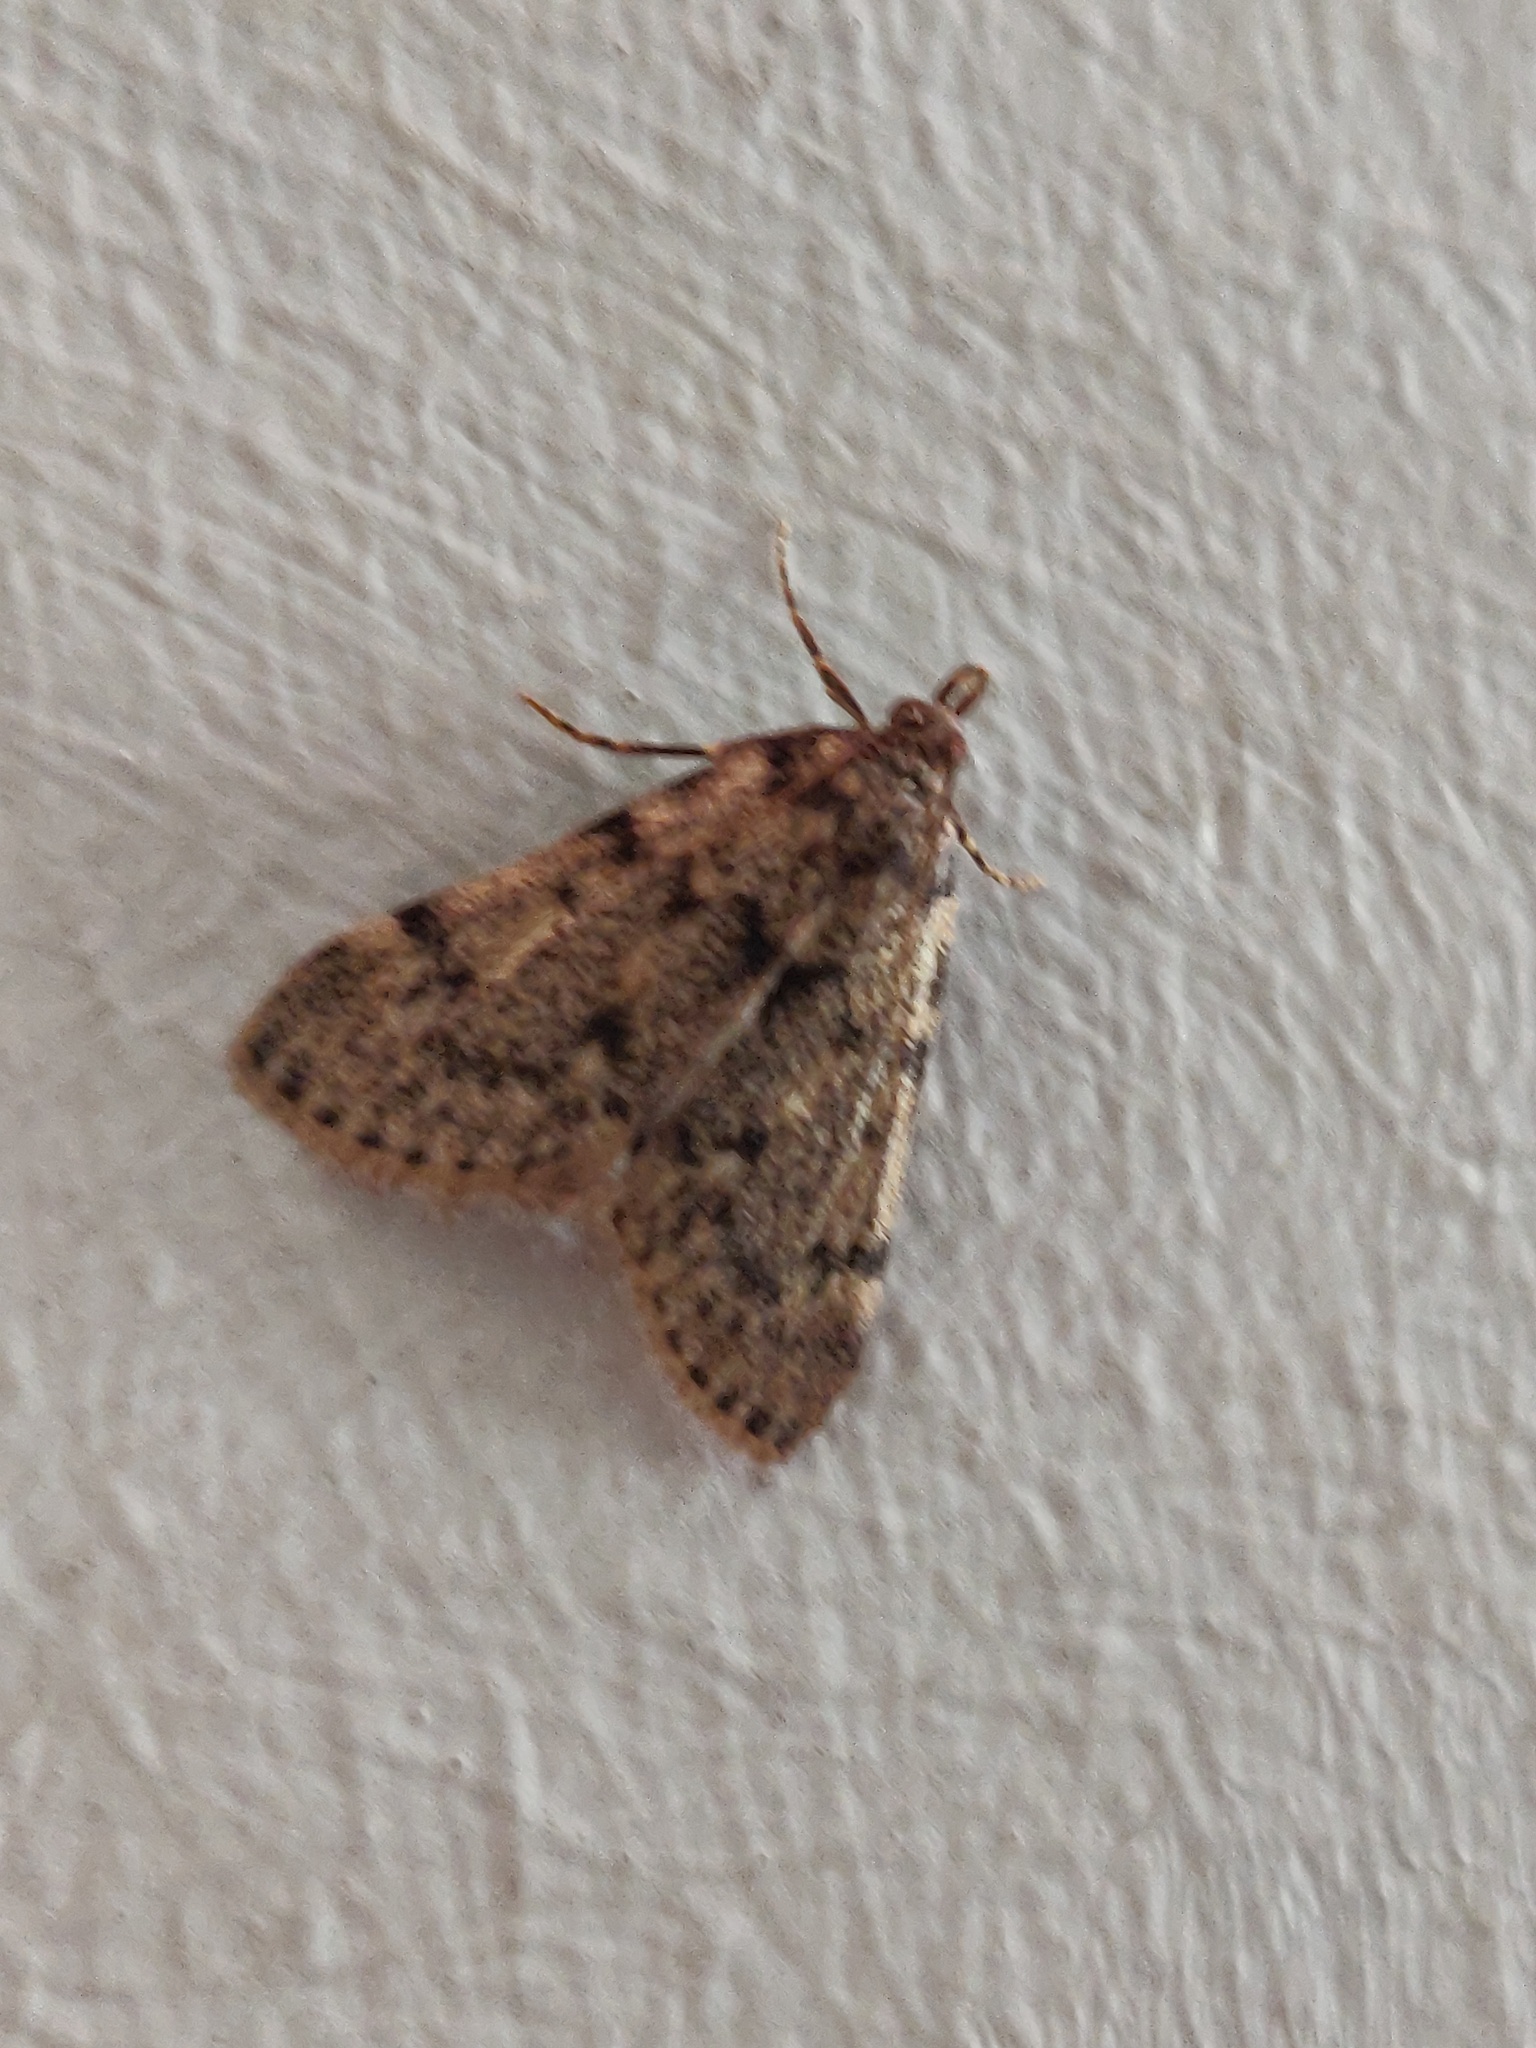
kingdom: Animalia
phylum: Arthropoda
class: Insecta
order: Lepidoptera
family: Pyralidae
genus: Aglossa
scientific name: Aglossa pinguinalis
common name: Large tabby
